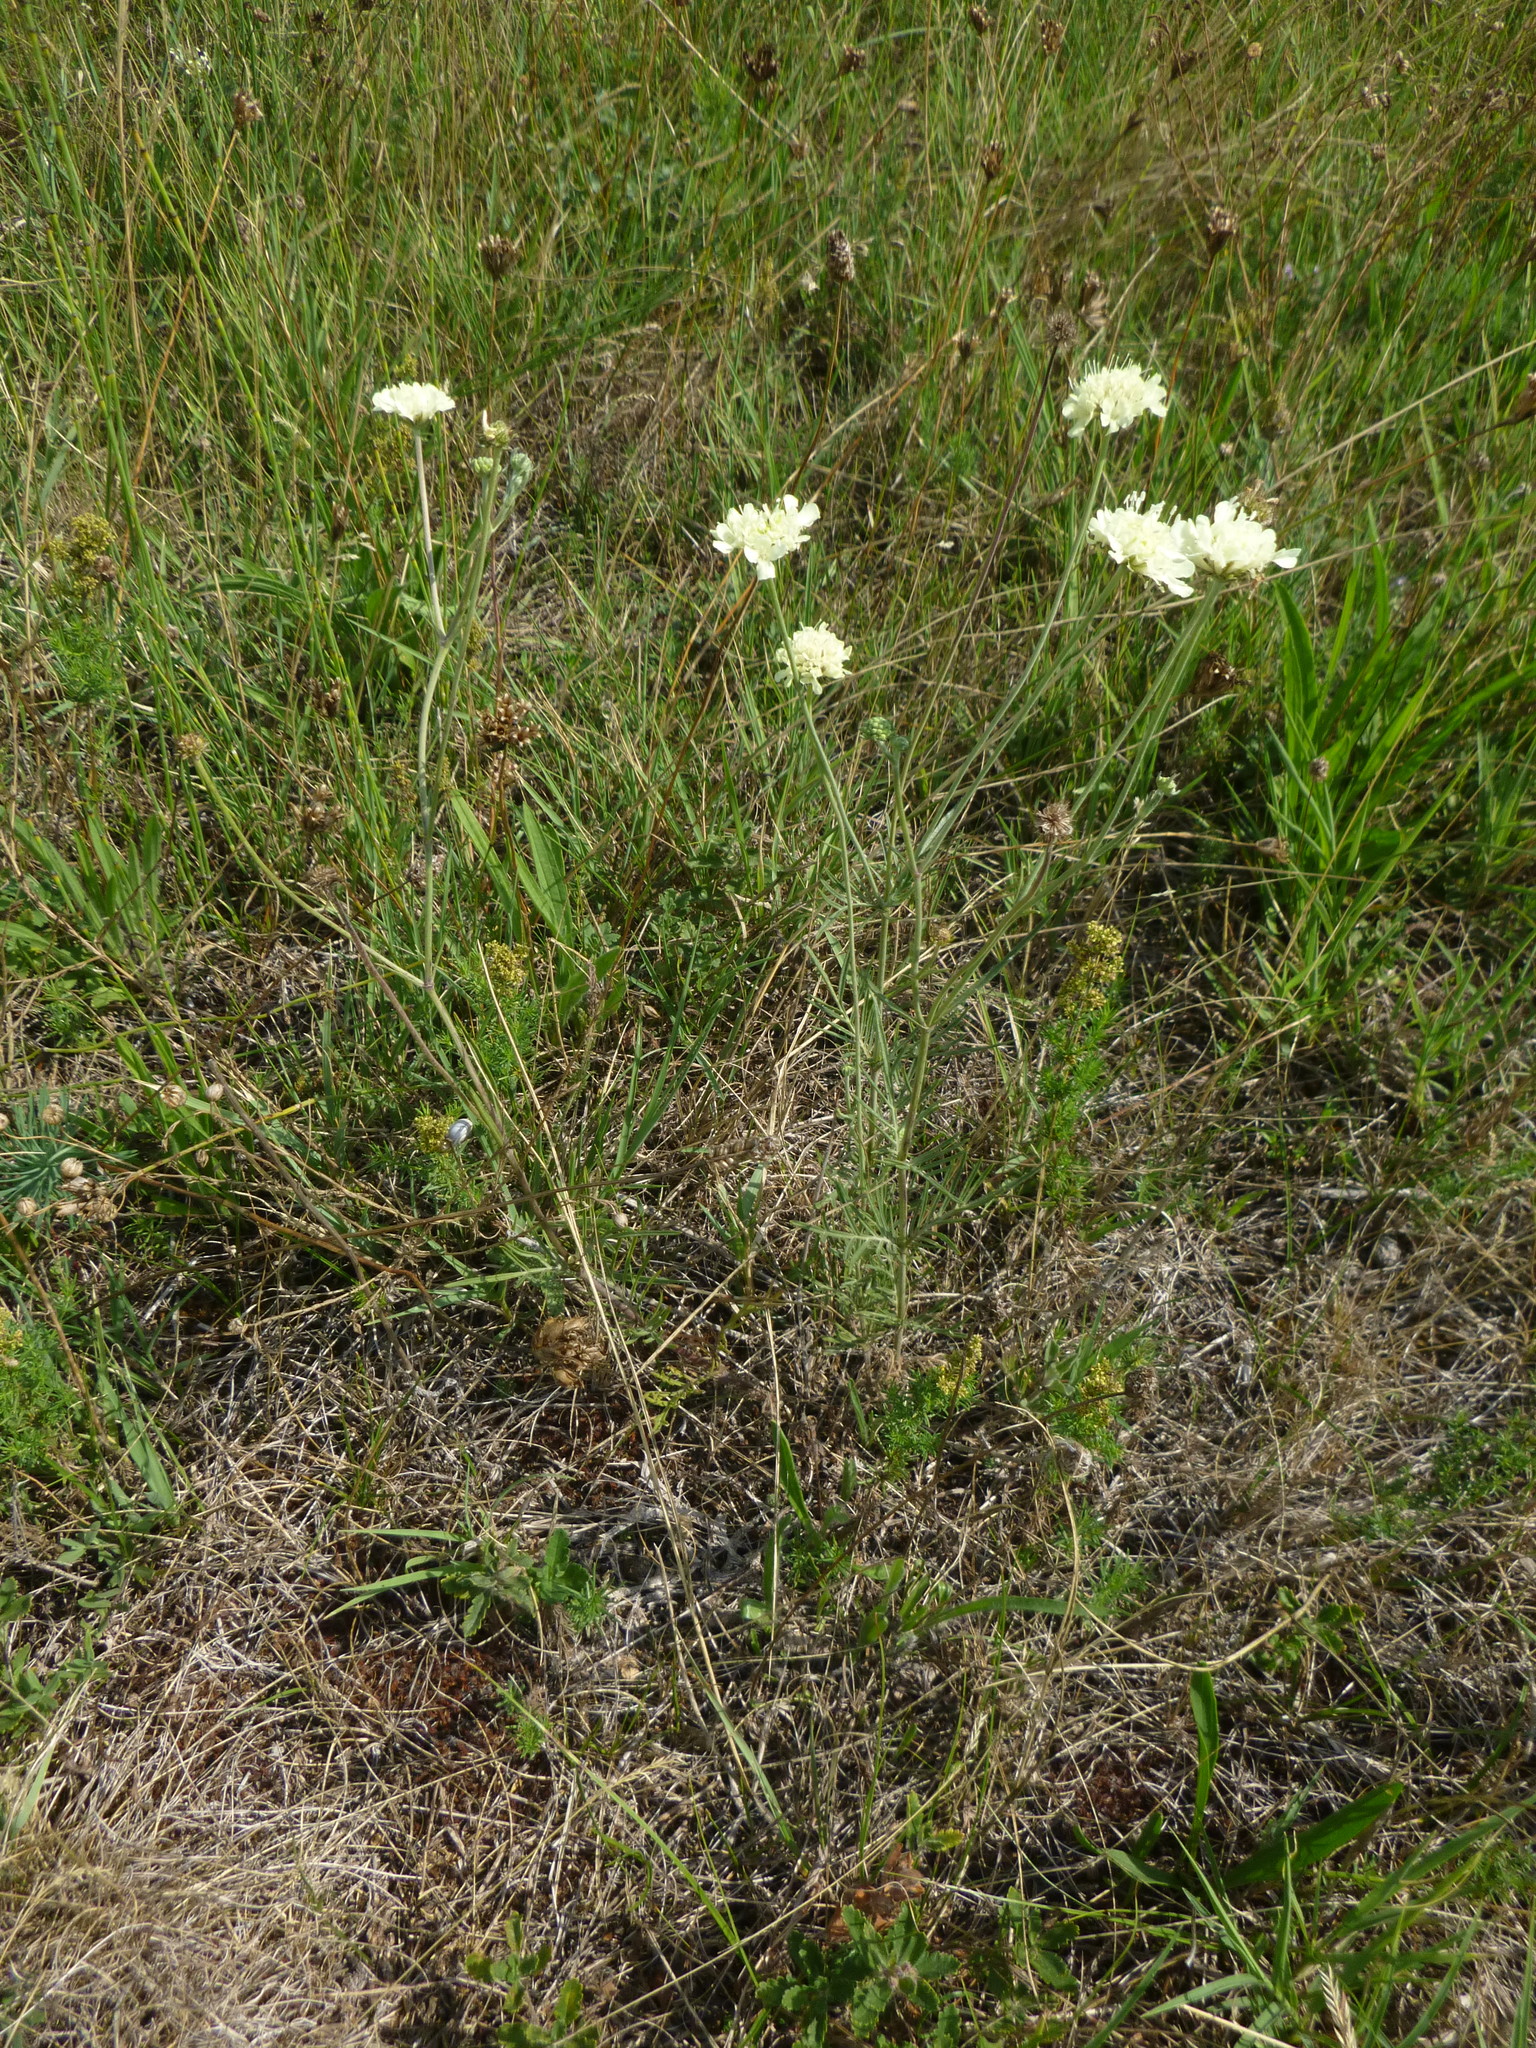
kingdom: Plantae
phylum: Tracheophyta
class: Magnoliopsida
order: Dipsacales
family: Caprifoliaceae
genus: Scabiosa
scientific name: Scabiosa ochroleuca
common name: Cream pincushions
